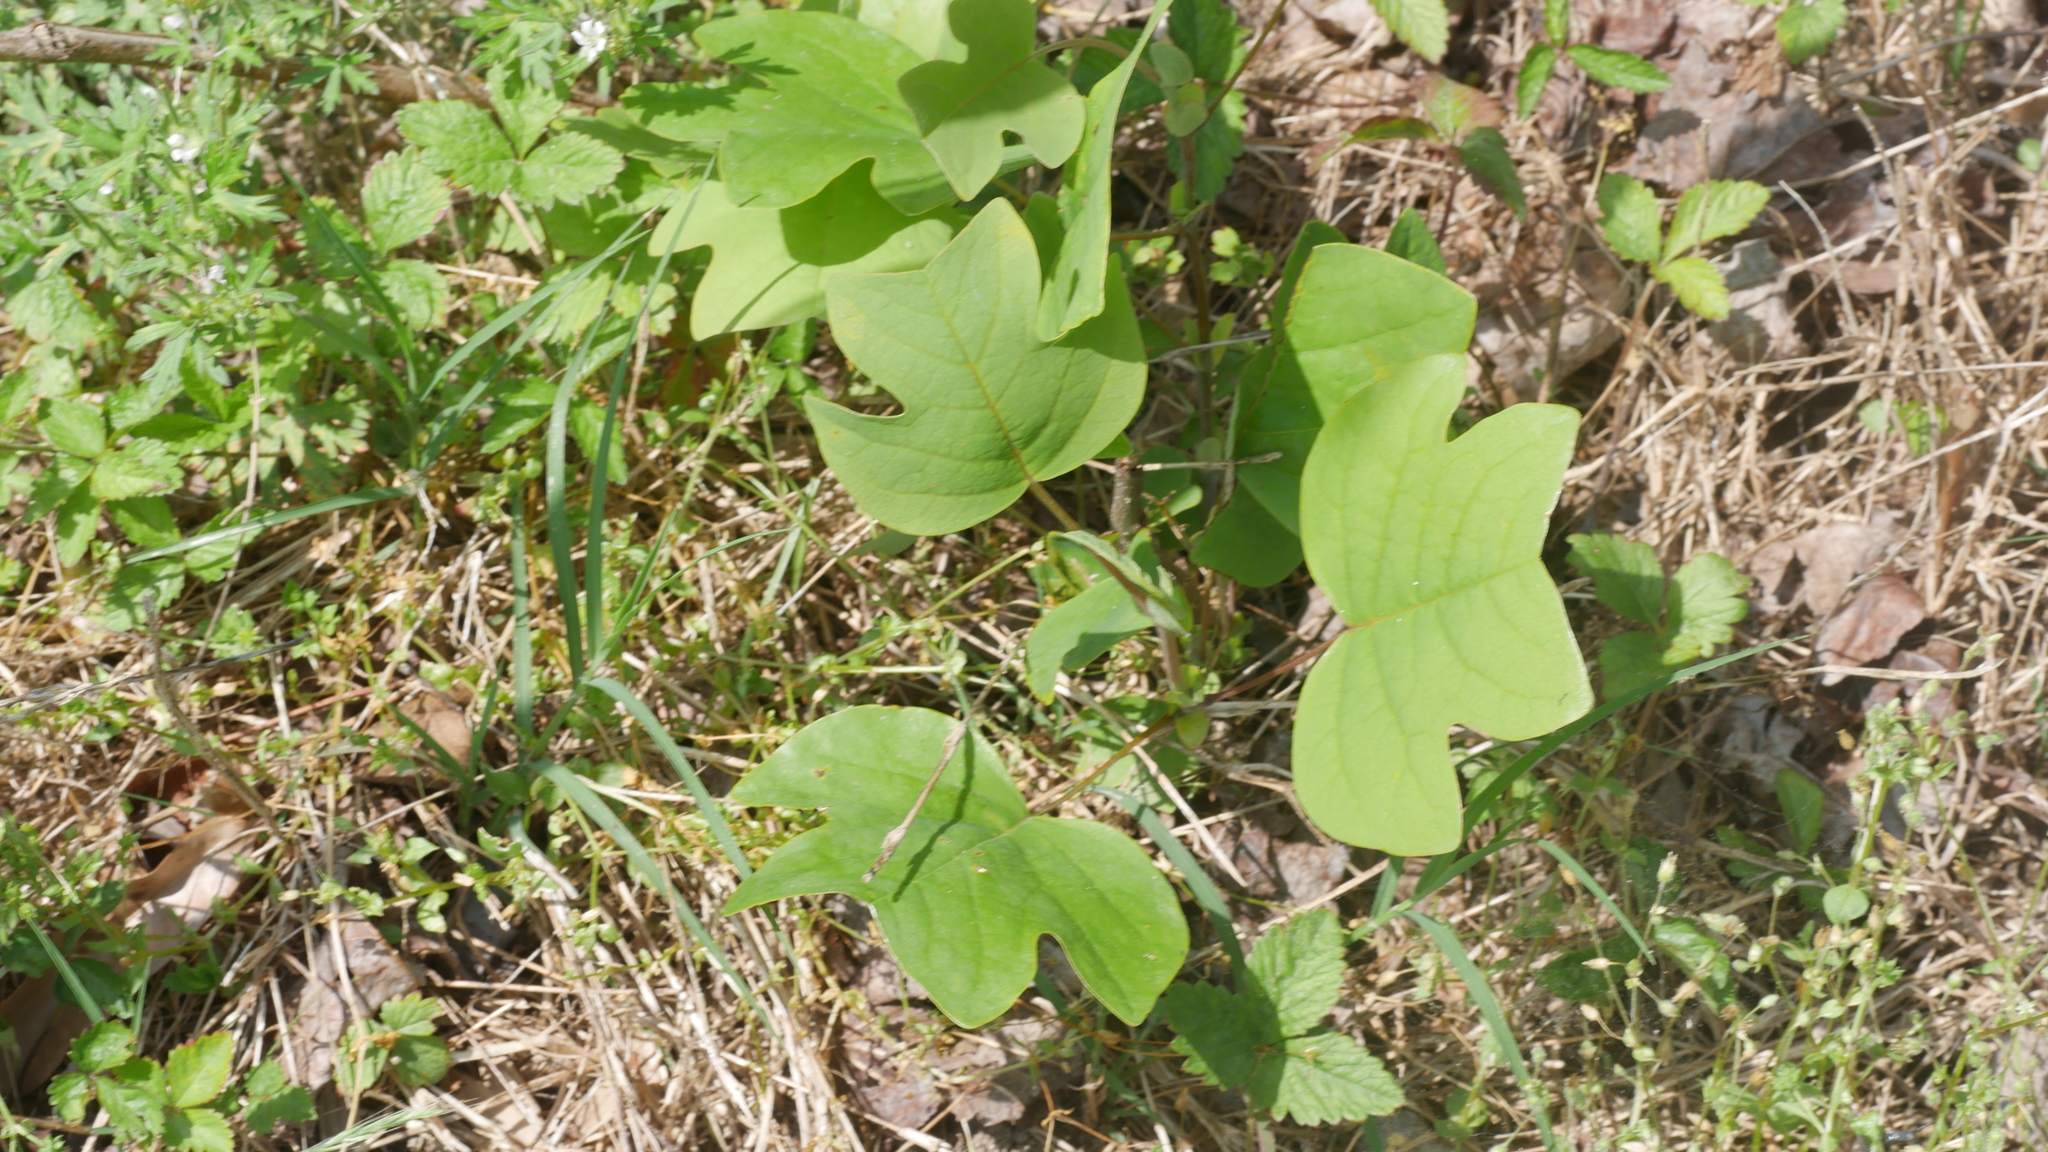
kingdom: Plantae
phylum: Tracheophyta
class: Magnoliopsida
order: Magnoliales
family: Magnoliaceae
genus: Liriodendron
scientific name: Liriodendron tulipifera
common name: Tulip tree
